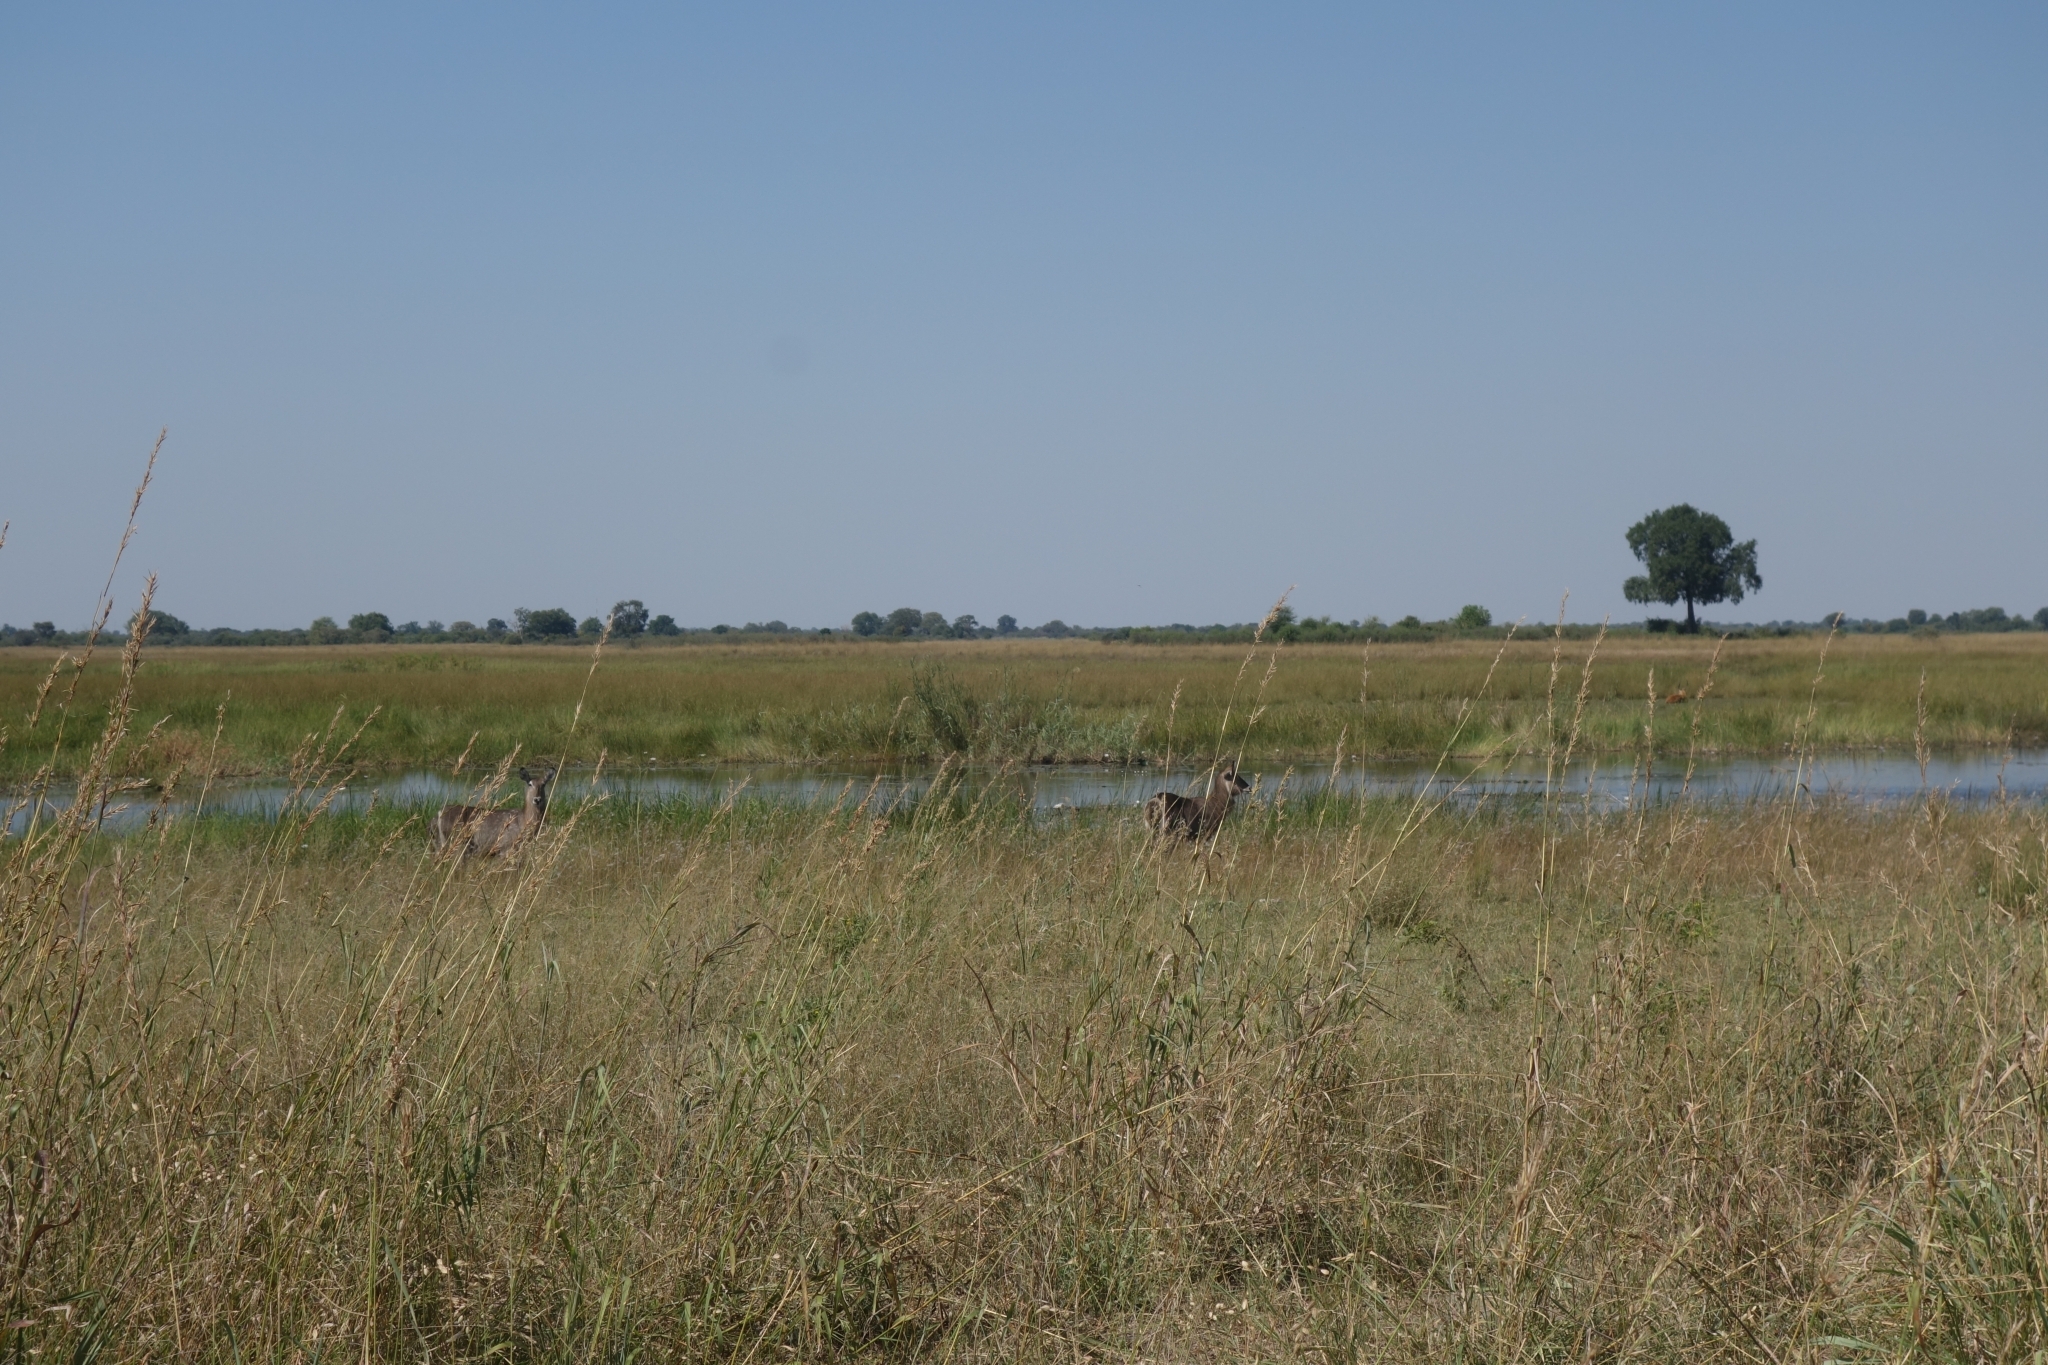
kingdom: Animalia
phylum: Chordata
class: Mammalia
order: Artiodactyla
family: Bovidae
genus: Kobus
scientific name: Kobus ellipsiprymnus
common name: Waterbuck
